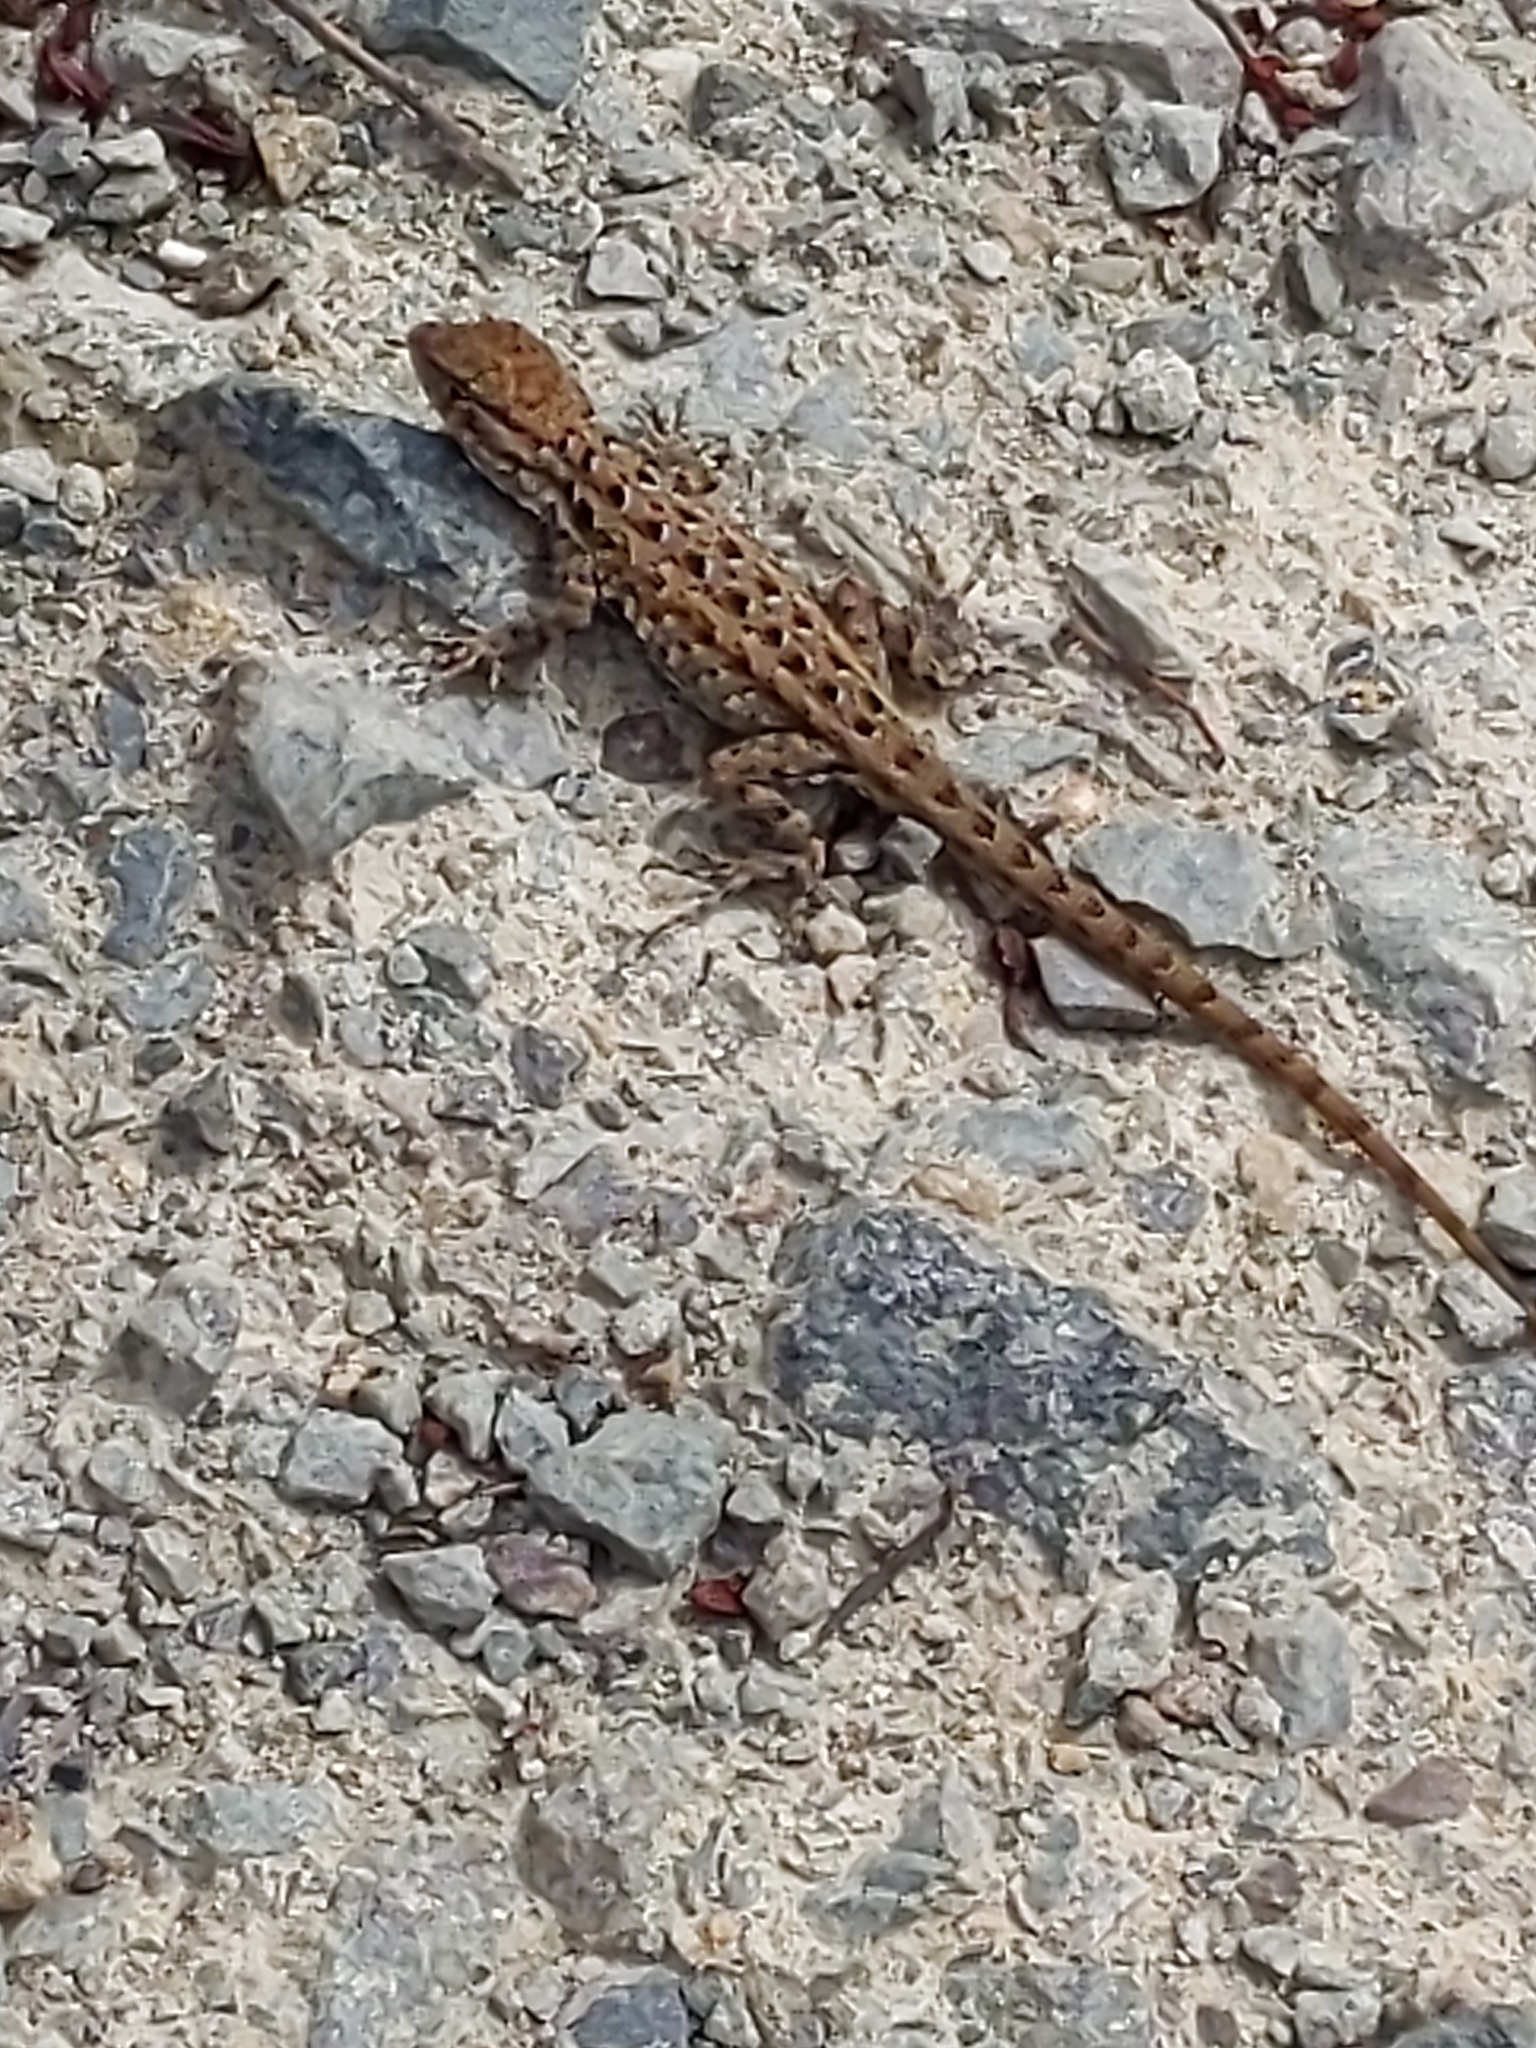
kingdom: Animalia
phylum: Chordata
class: Squamata
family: Phrynosomatidae
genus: Uta
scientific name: Uta stansburiana
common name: Side-blotched lizard
